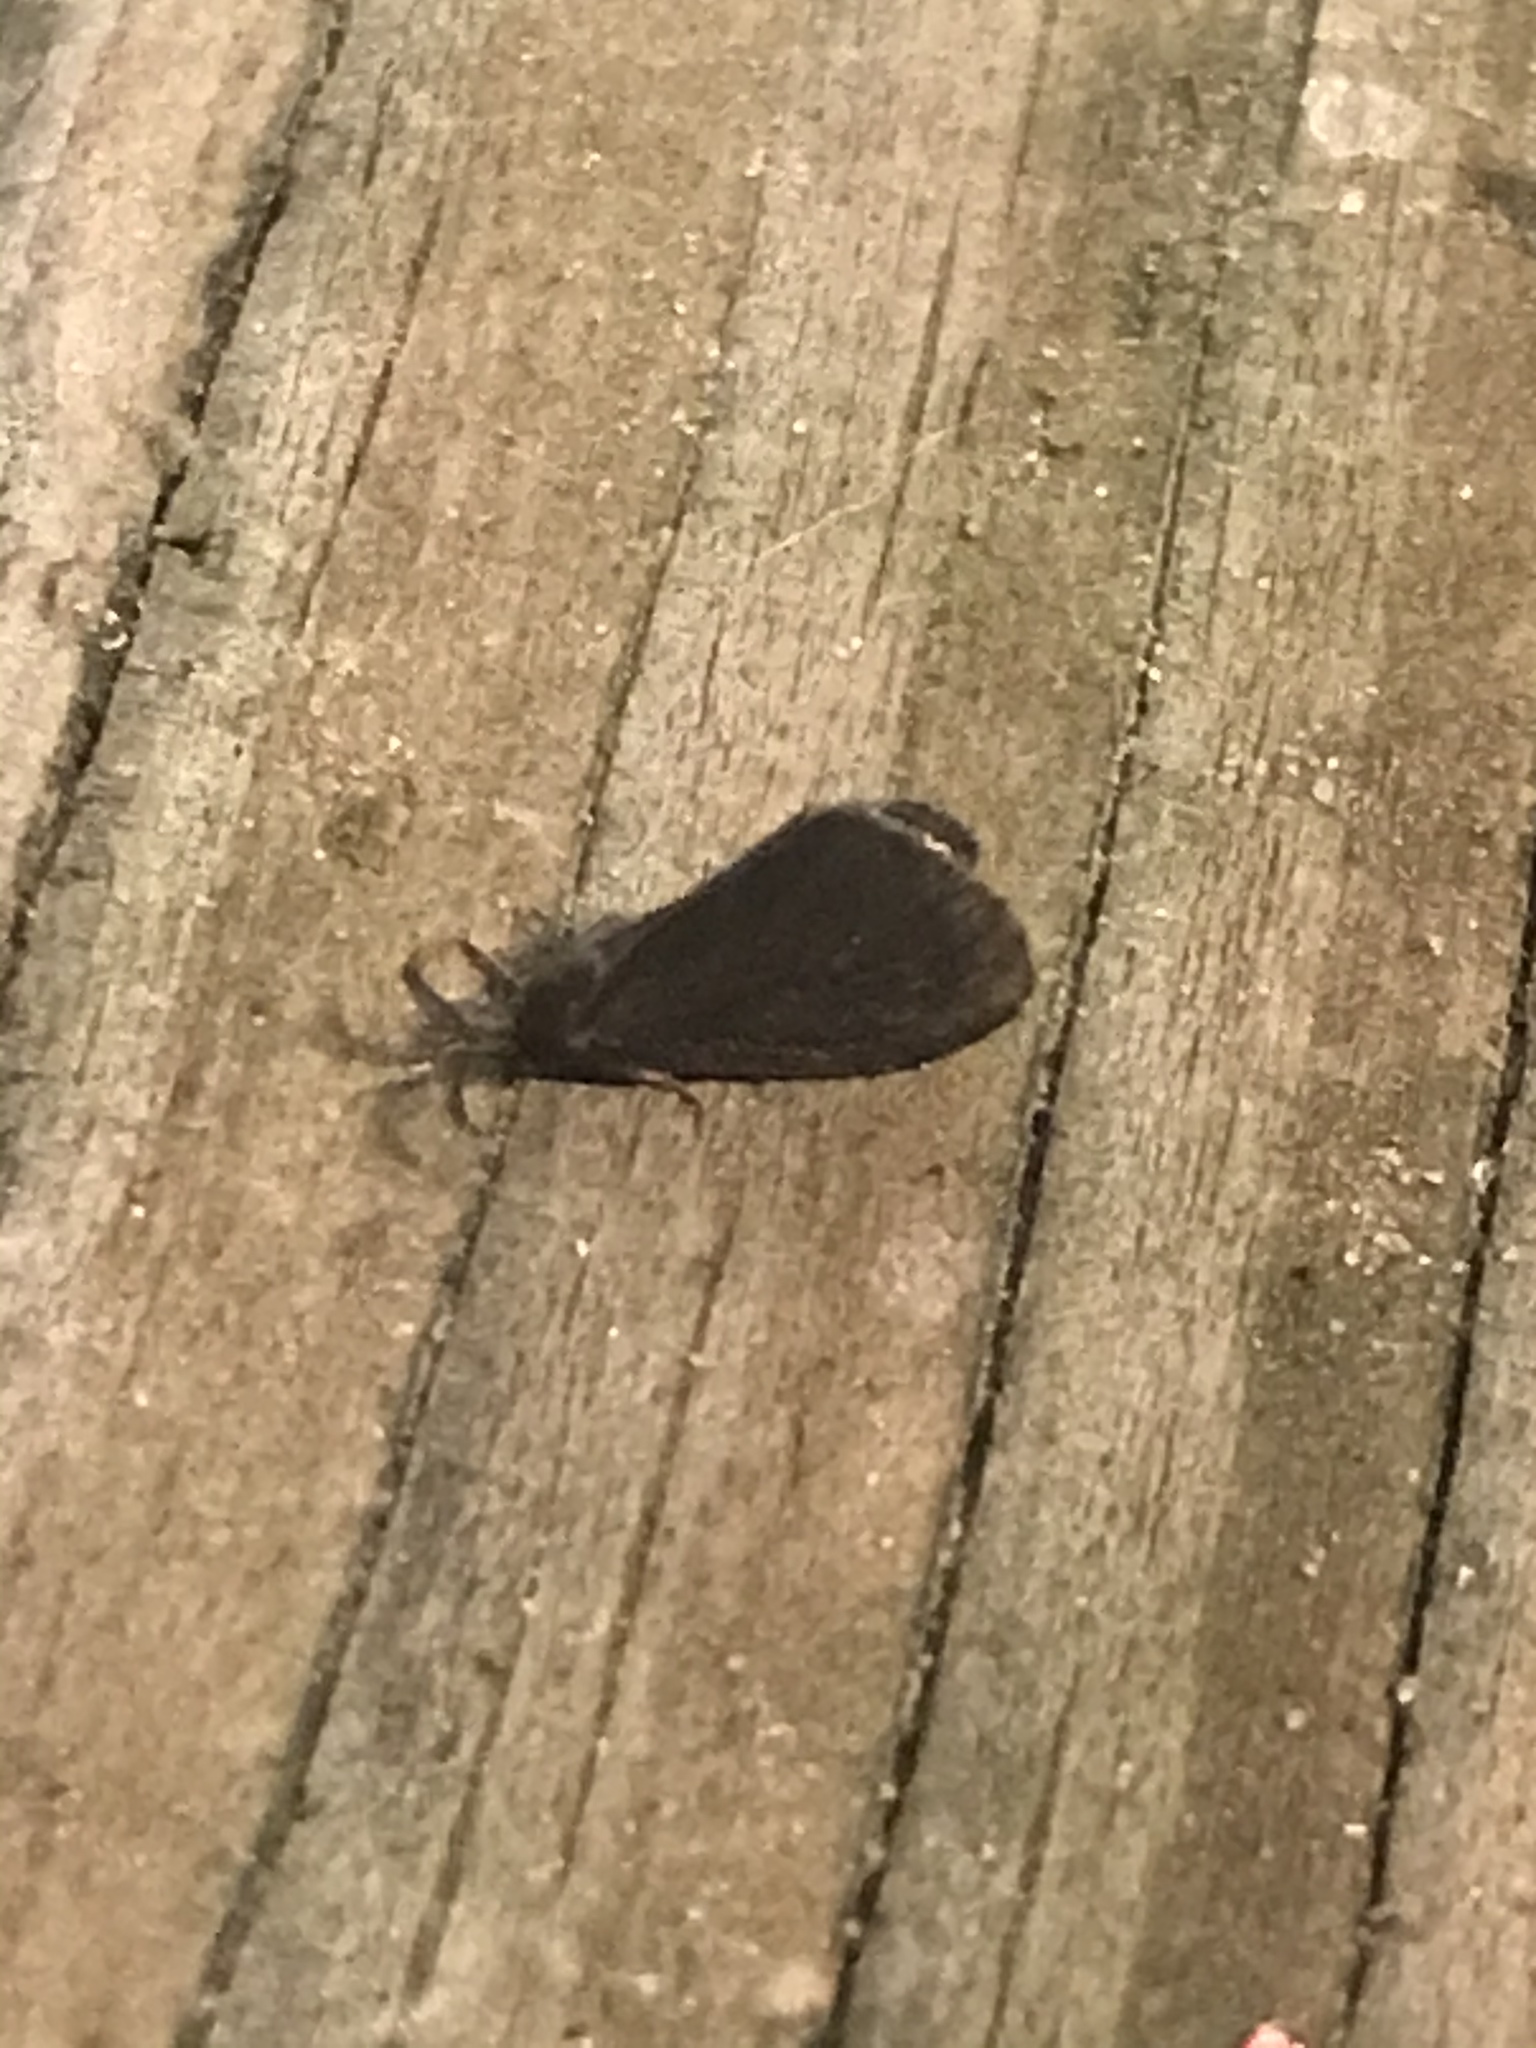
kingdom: Animalia
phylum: Arthropoda
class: Insecta
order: Lepidoptera
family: Psychidae
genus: Cryptothelea
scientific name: Cryptothelea gloverii
